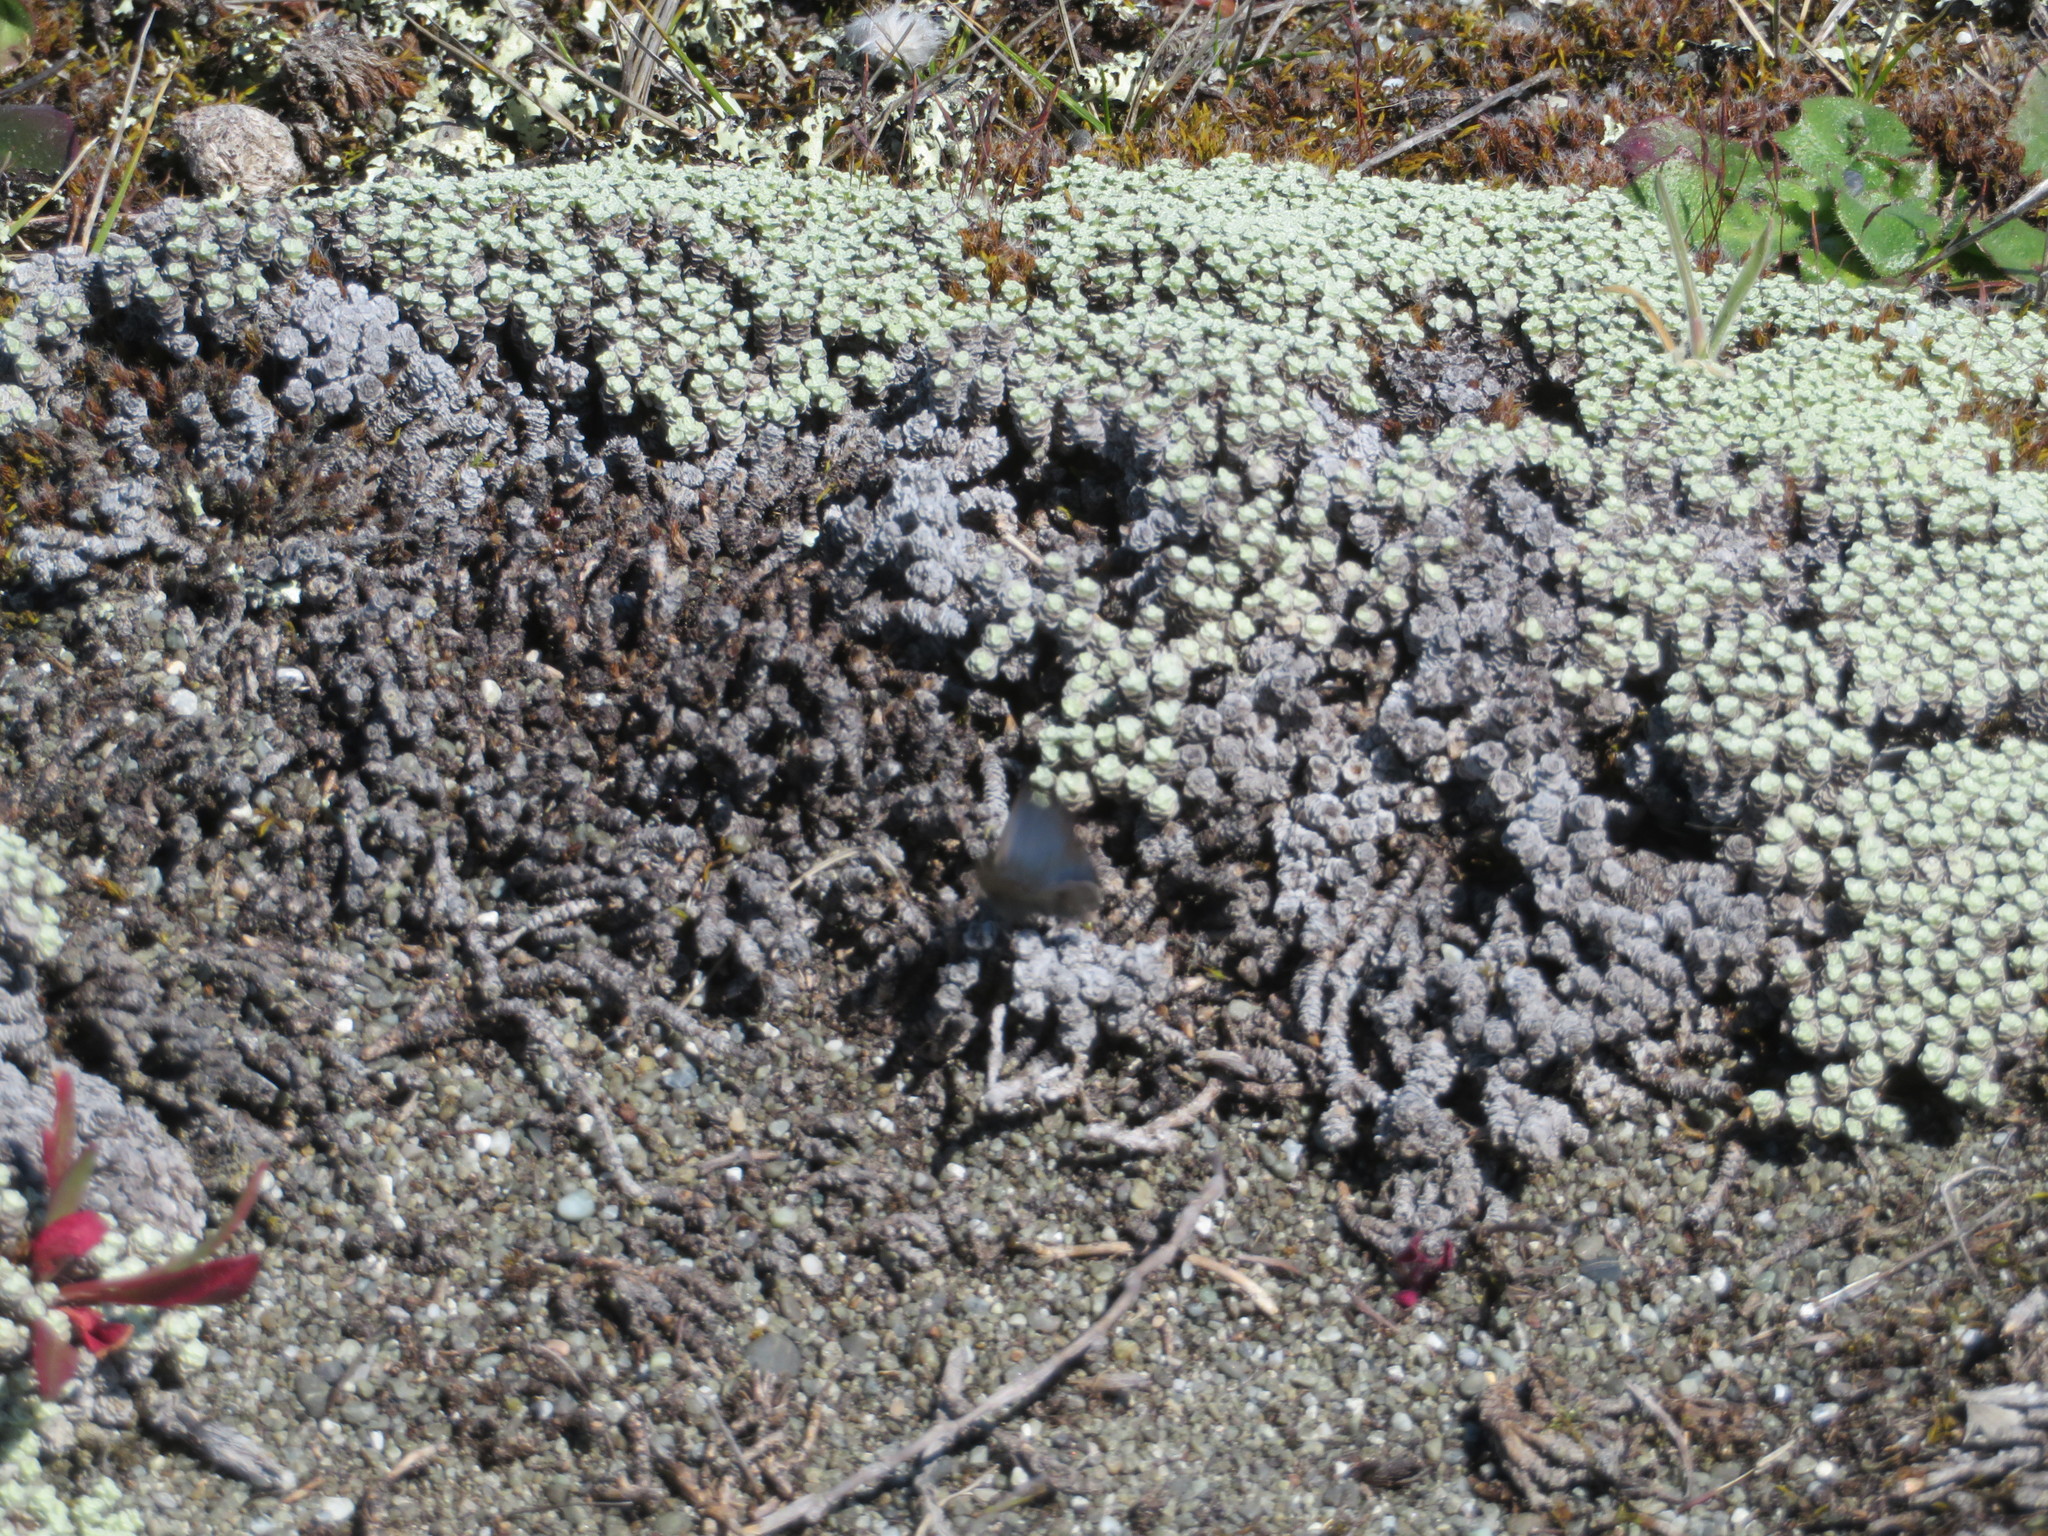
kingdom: Plantae
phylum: Tracheophyta
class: Magnoliopsida
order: Asterales
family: Asteraceae
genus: Raoulia
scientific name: Raoulia australis
